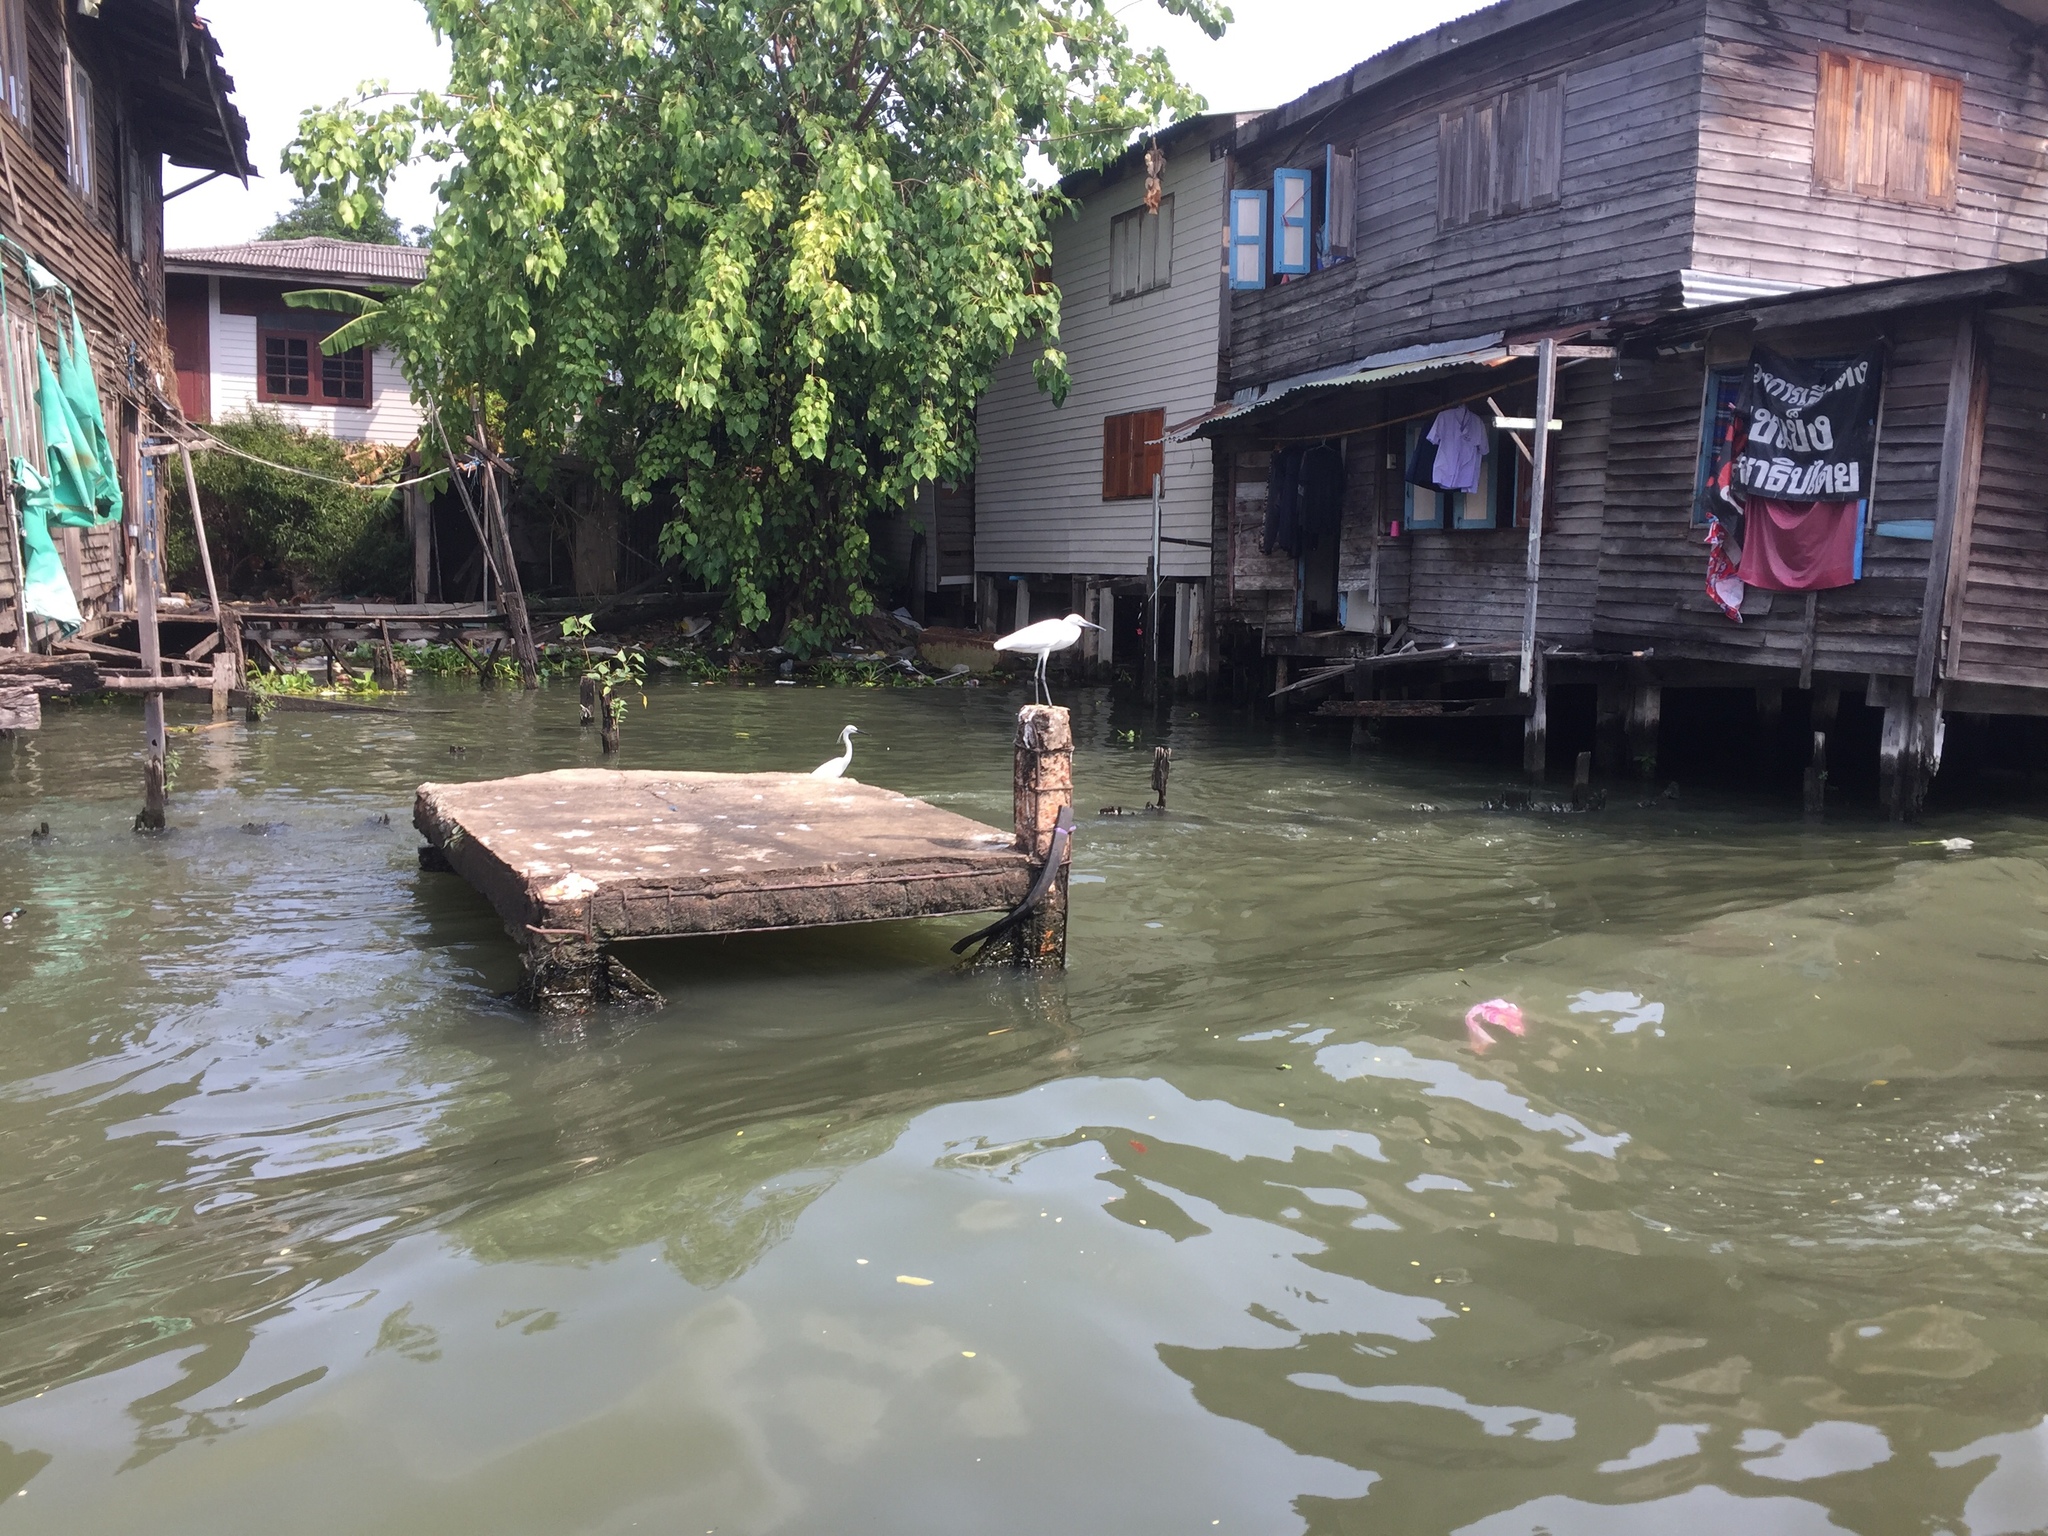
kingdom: Animalia
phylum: Chordata
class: Aves
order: Pelecaniformes
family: Ardeidae
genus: Egretta
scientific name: Egretta garzetta
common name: Little egret
